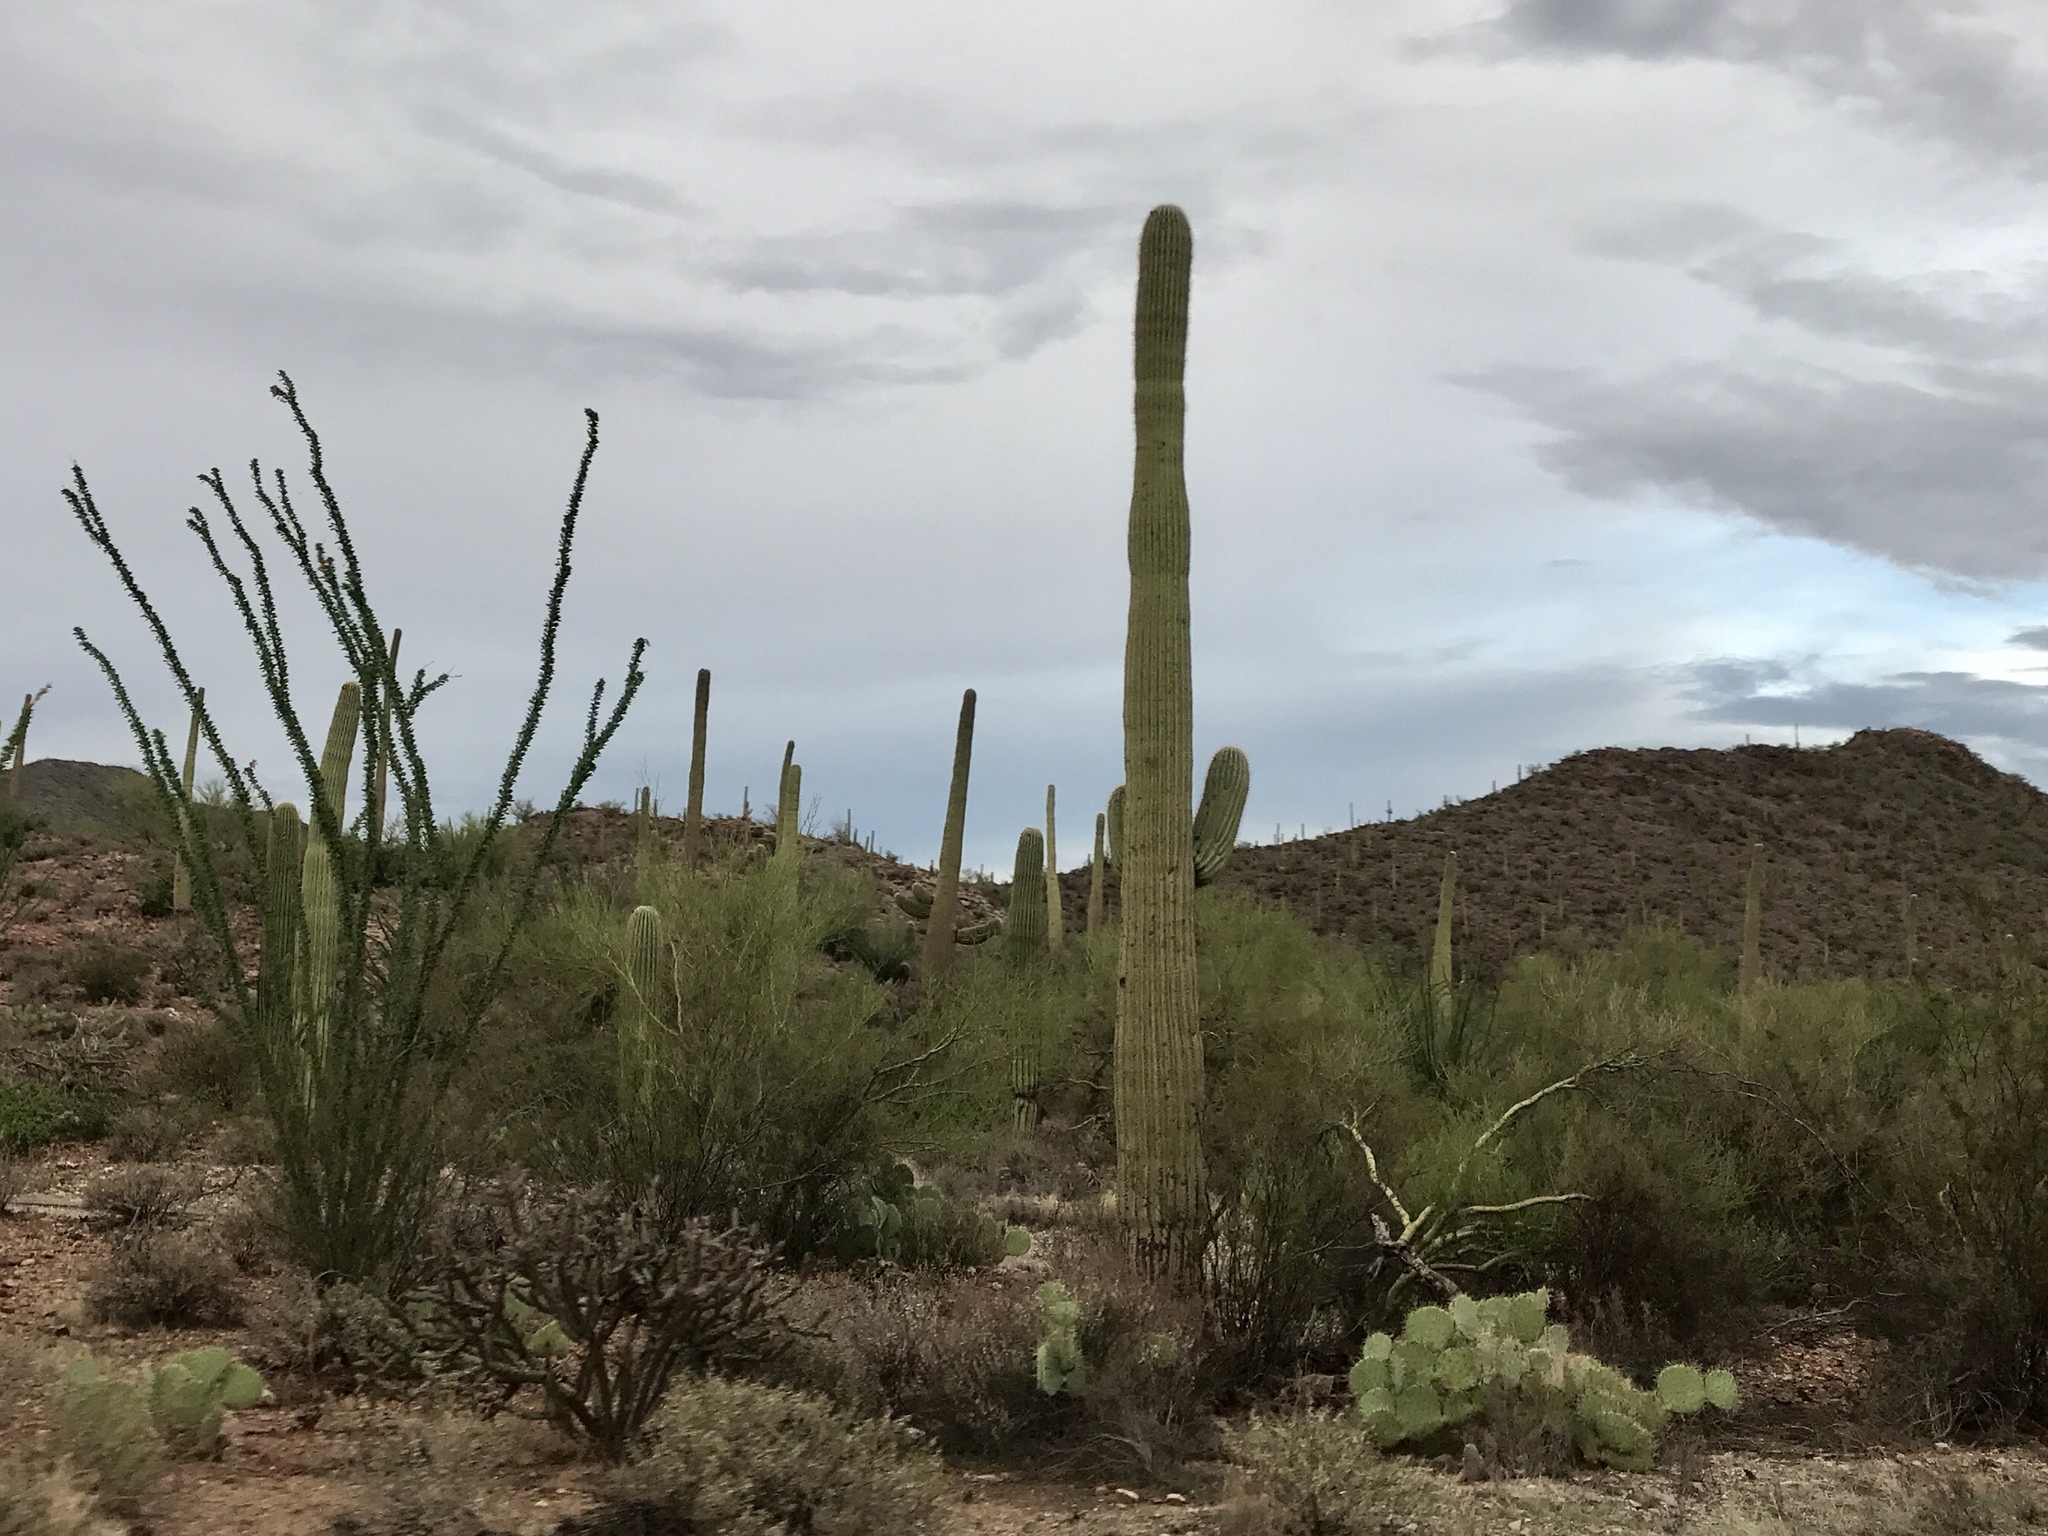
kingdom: Plantae
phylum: Tracheophyta
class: Magnoliopsida
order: Caryophyllales
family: Cactaceae
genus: Carnegiea
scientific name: Carnegiea gigantea
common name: Saguaro
